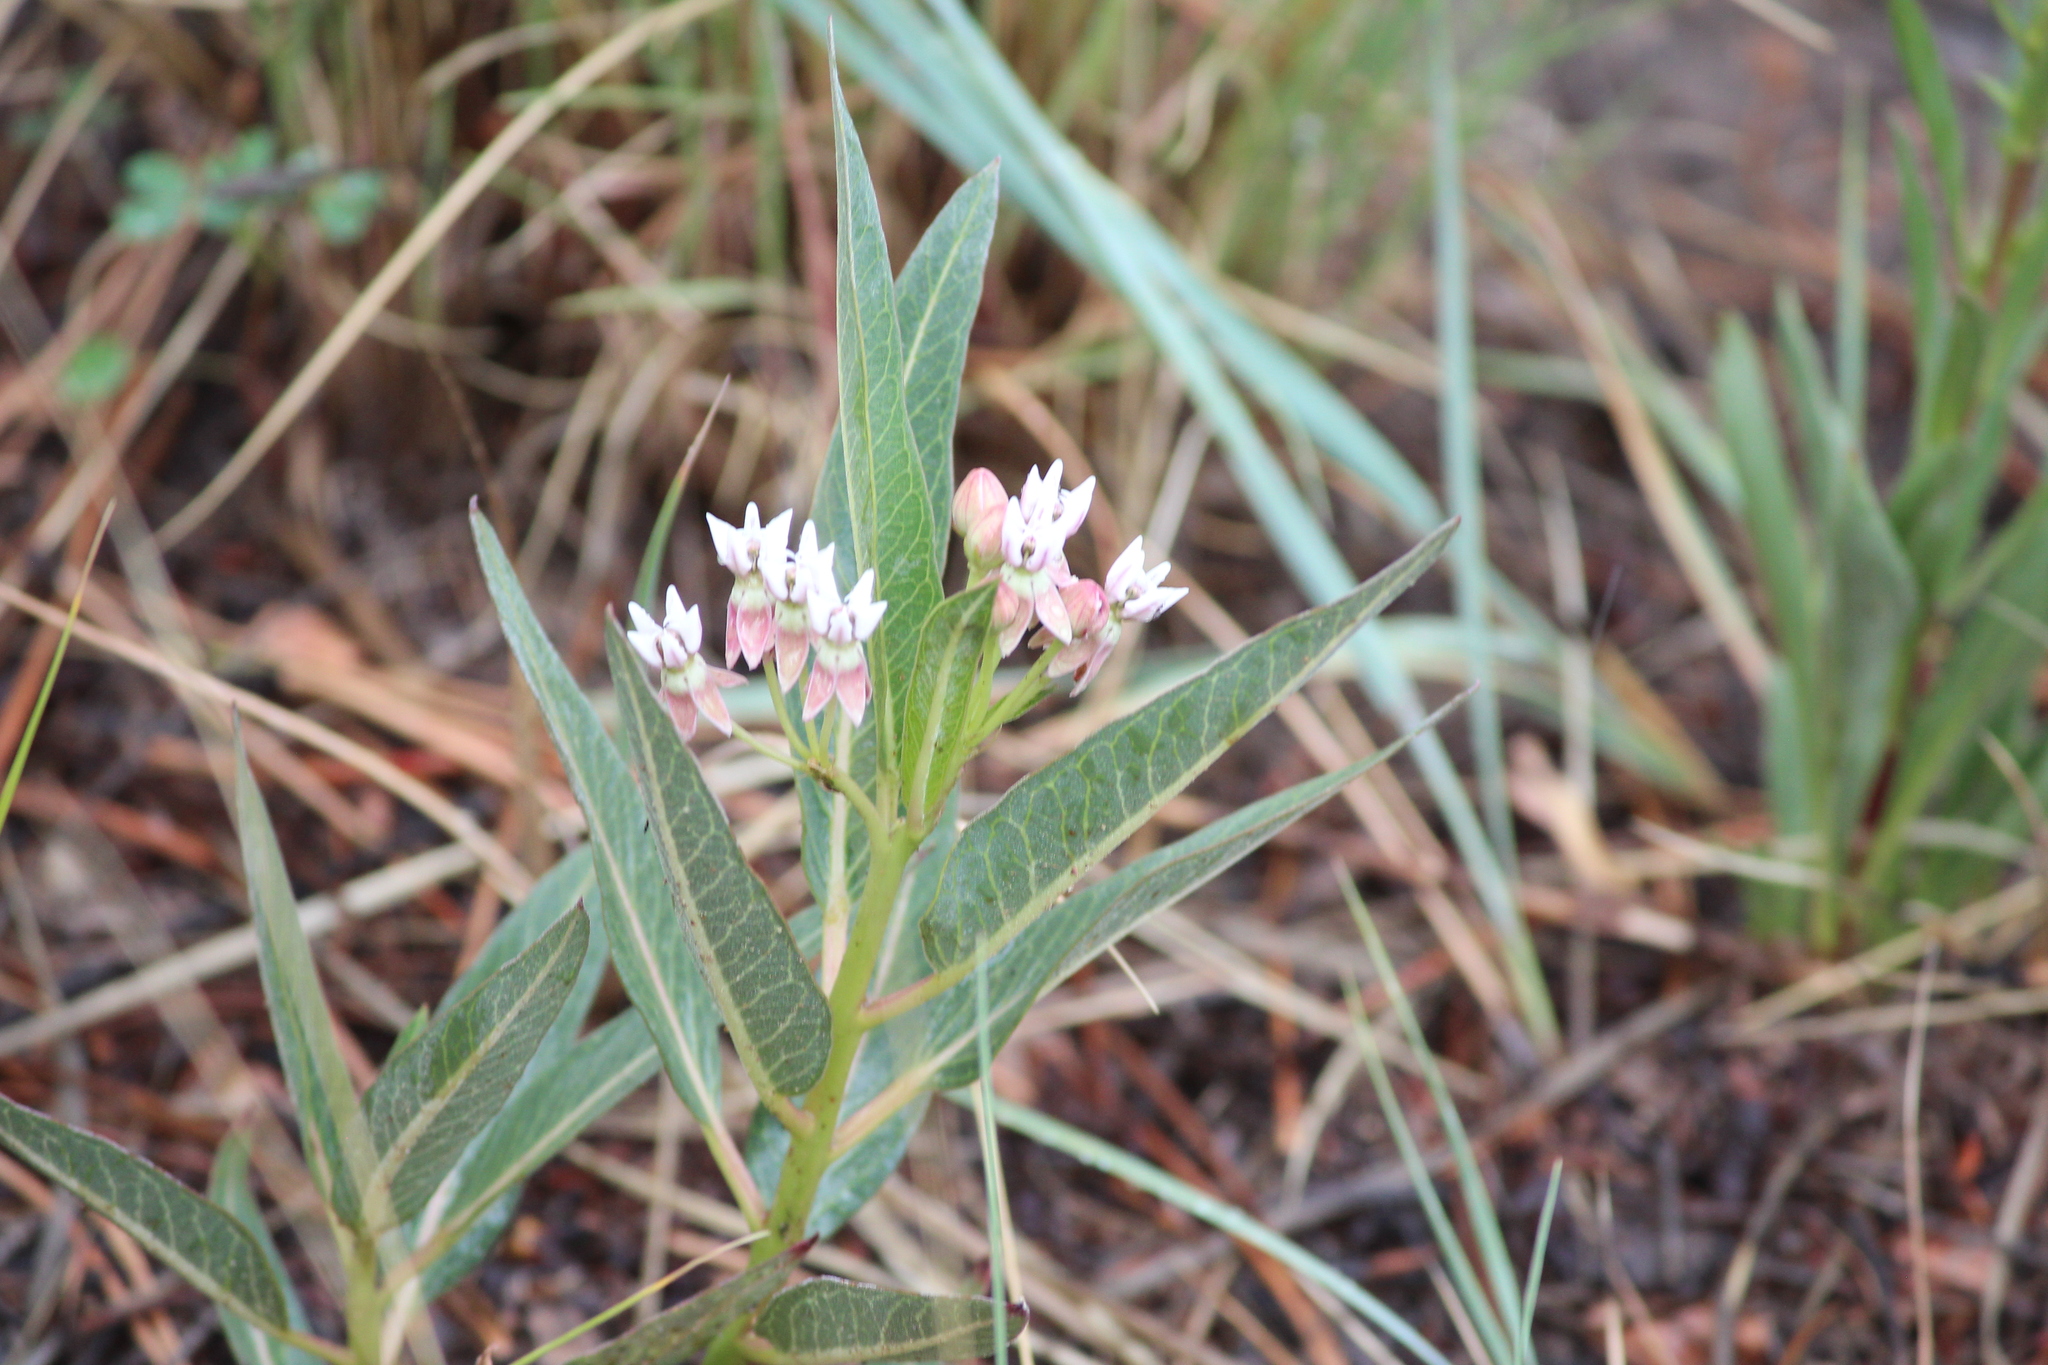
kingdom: Plantae
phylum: Tracheophyta
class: Magnoliopsida
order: Gentianales
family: Apocynaceae
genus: Asclepias
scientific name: Asclepias hallii
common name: Hall's milkweed
